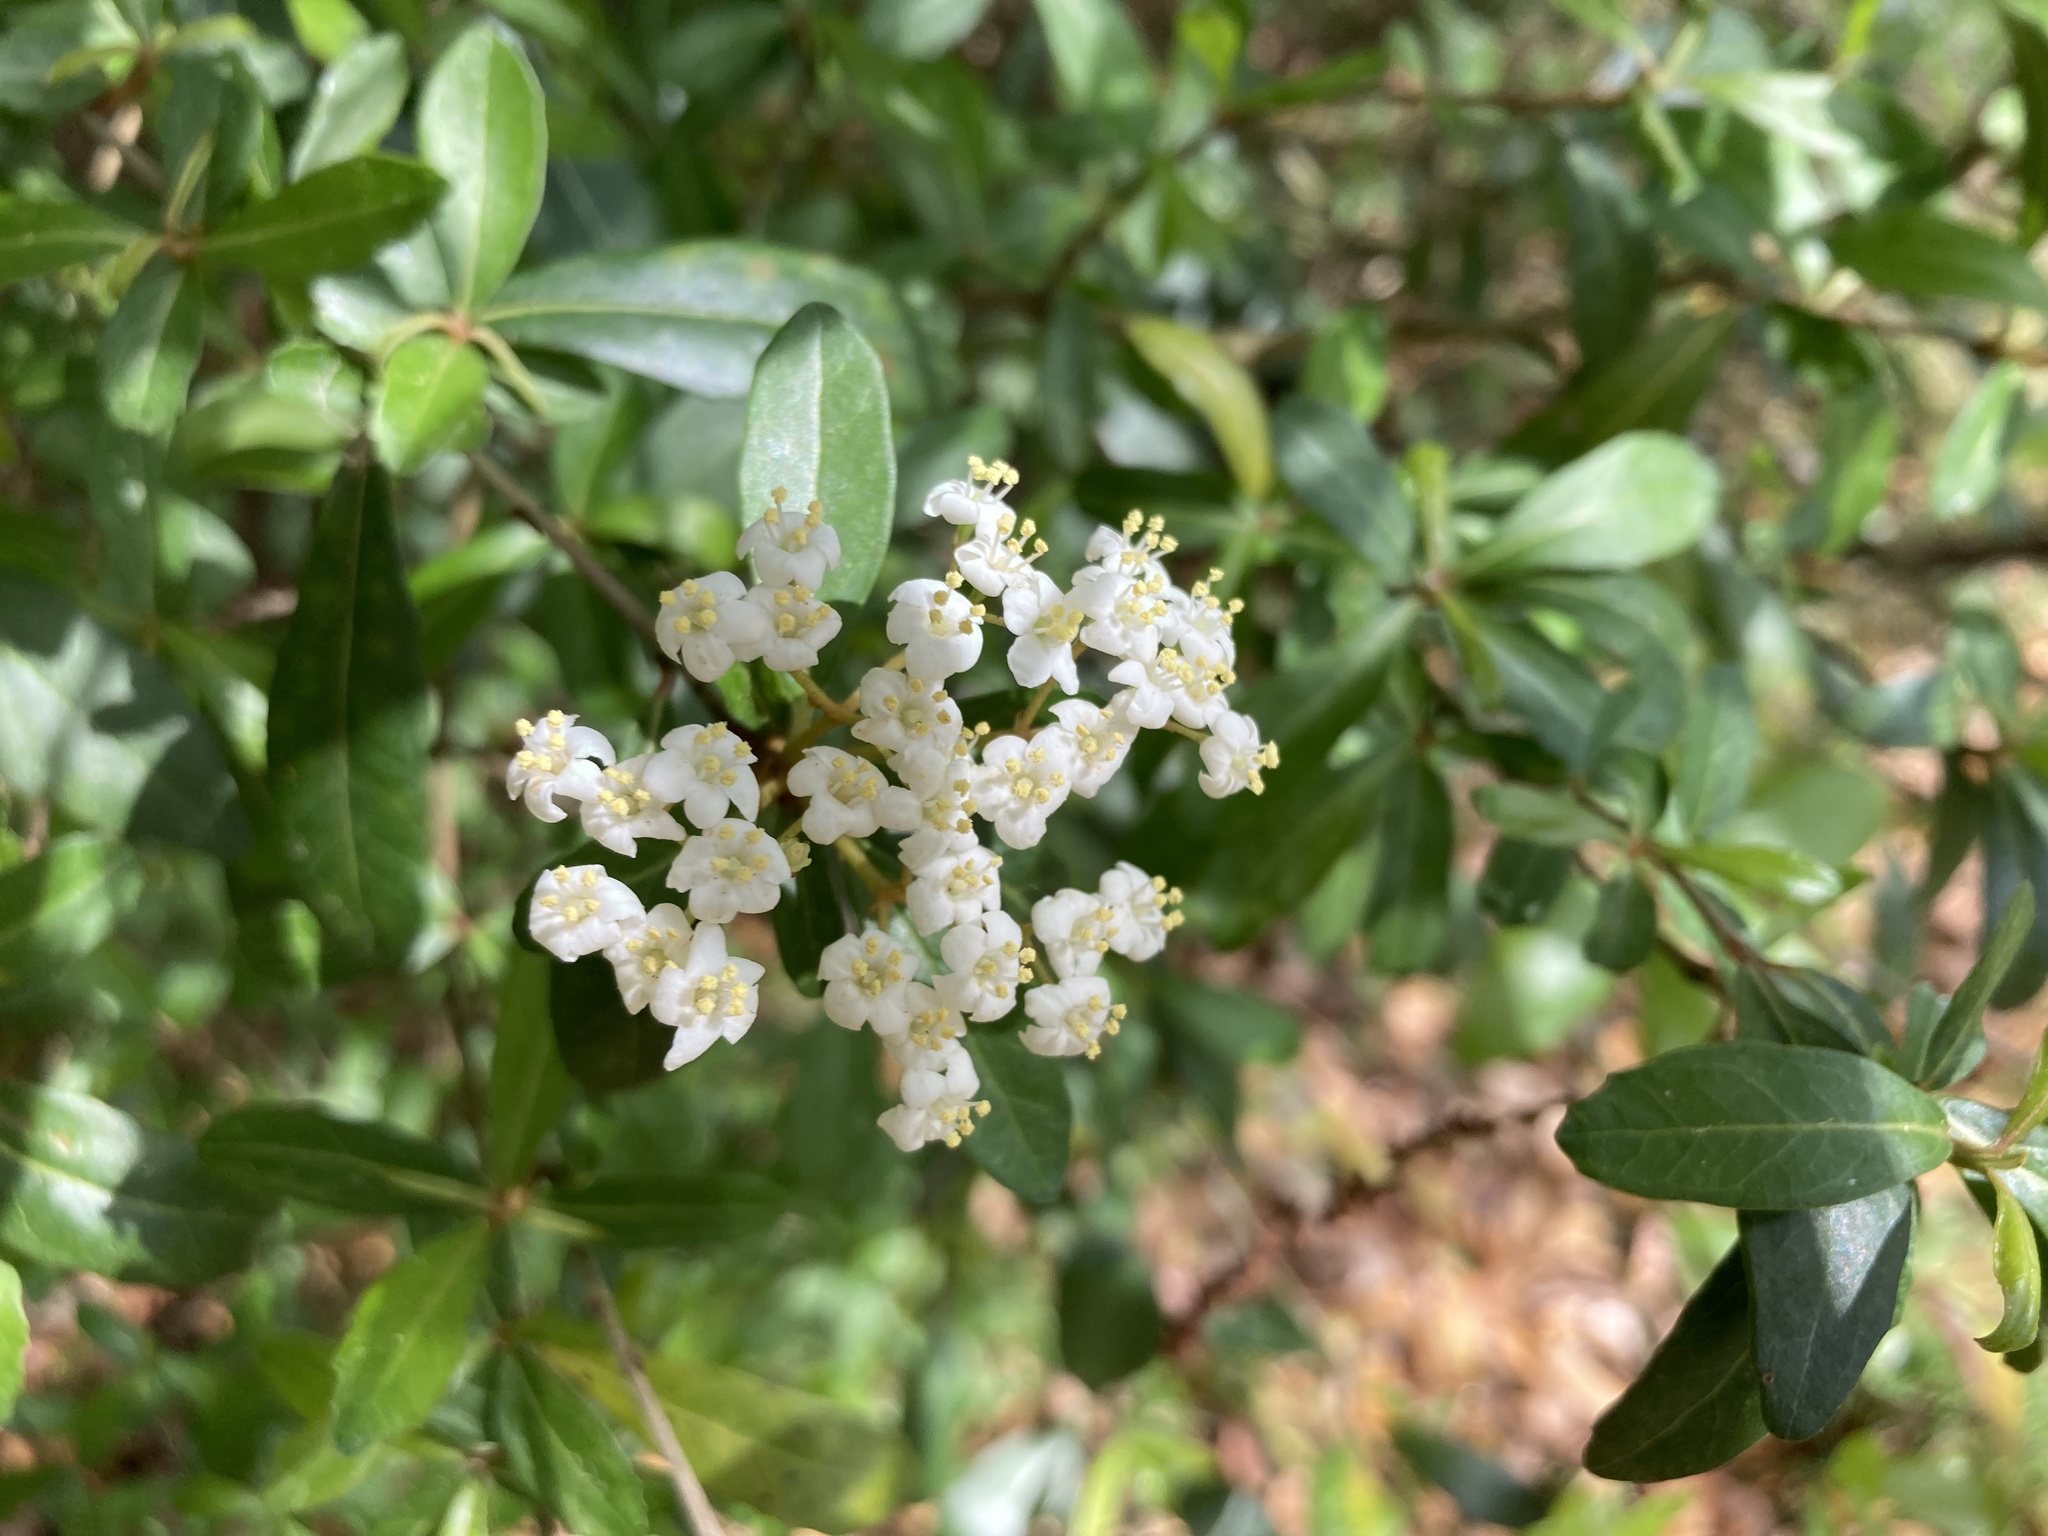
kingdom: Plantae
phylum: Tracheophyta
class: Magnoliopsida
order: Dipsacales
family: Viburnaceae
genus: Viburnum
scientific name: Viburnum obovatum
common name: Walter's viburnum
